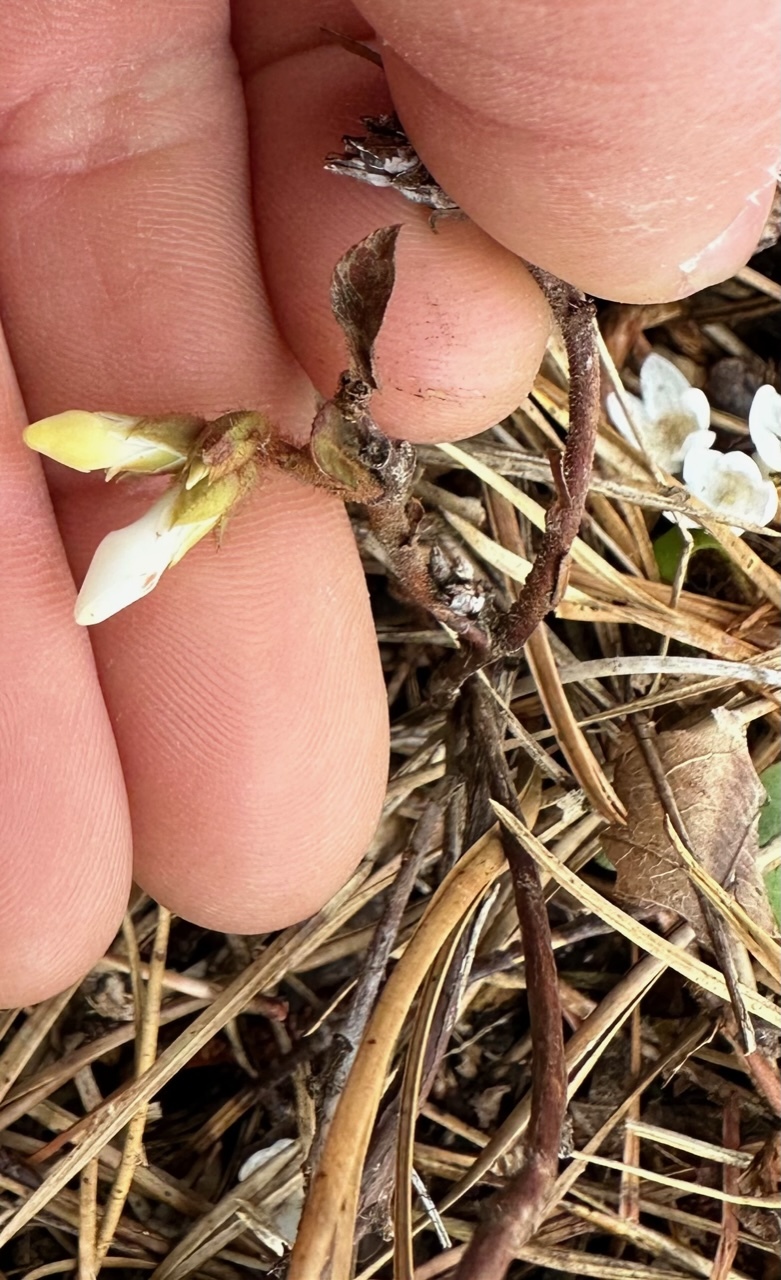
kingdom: Plantae
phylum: Tracheophyta
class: Magnoliopsida
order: Ericales
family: Ericaceae
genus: Epigaea
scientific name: Epigaea repens
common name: Gravelroot
